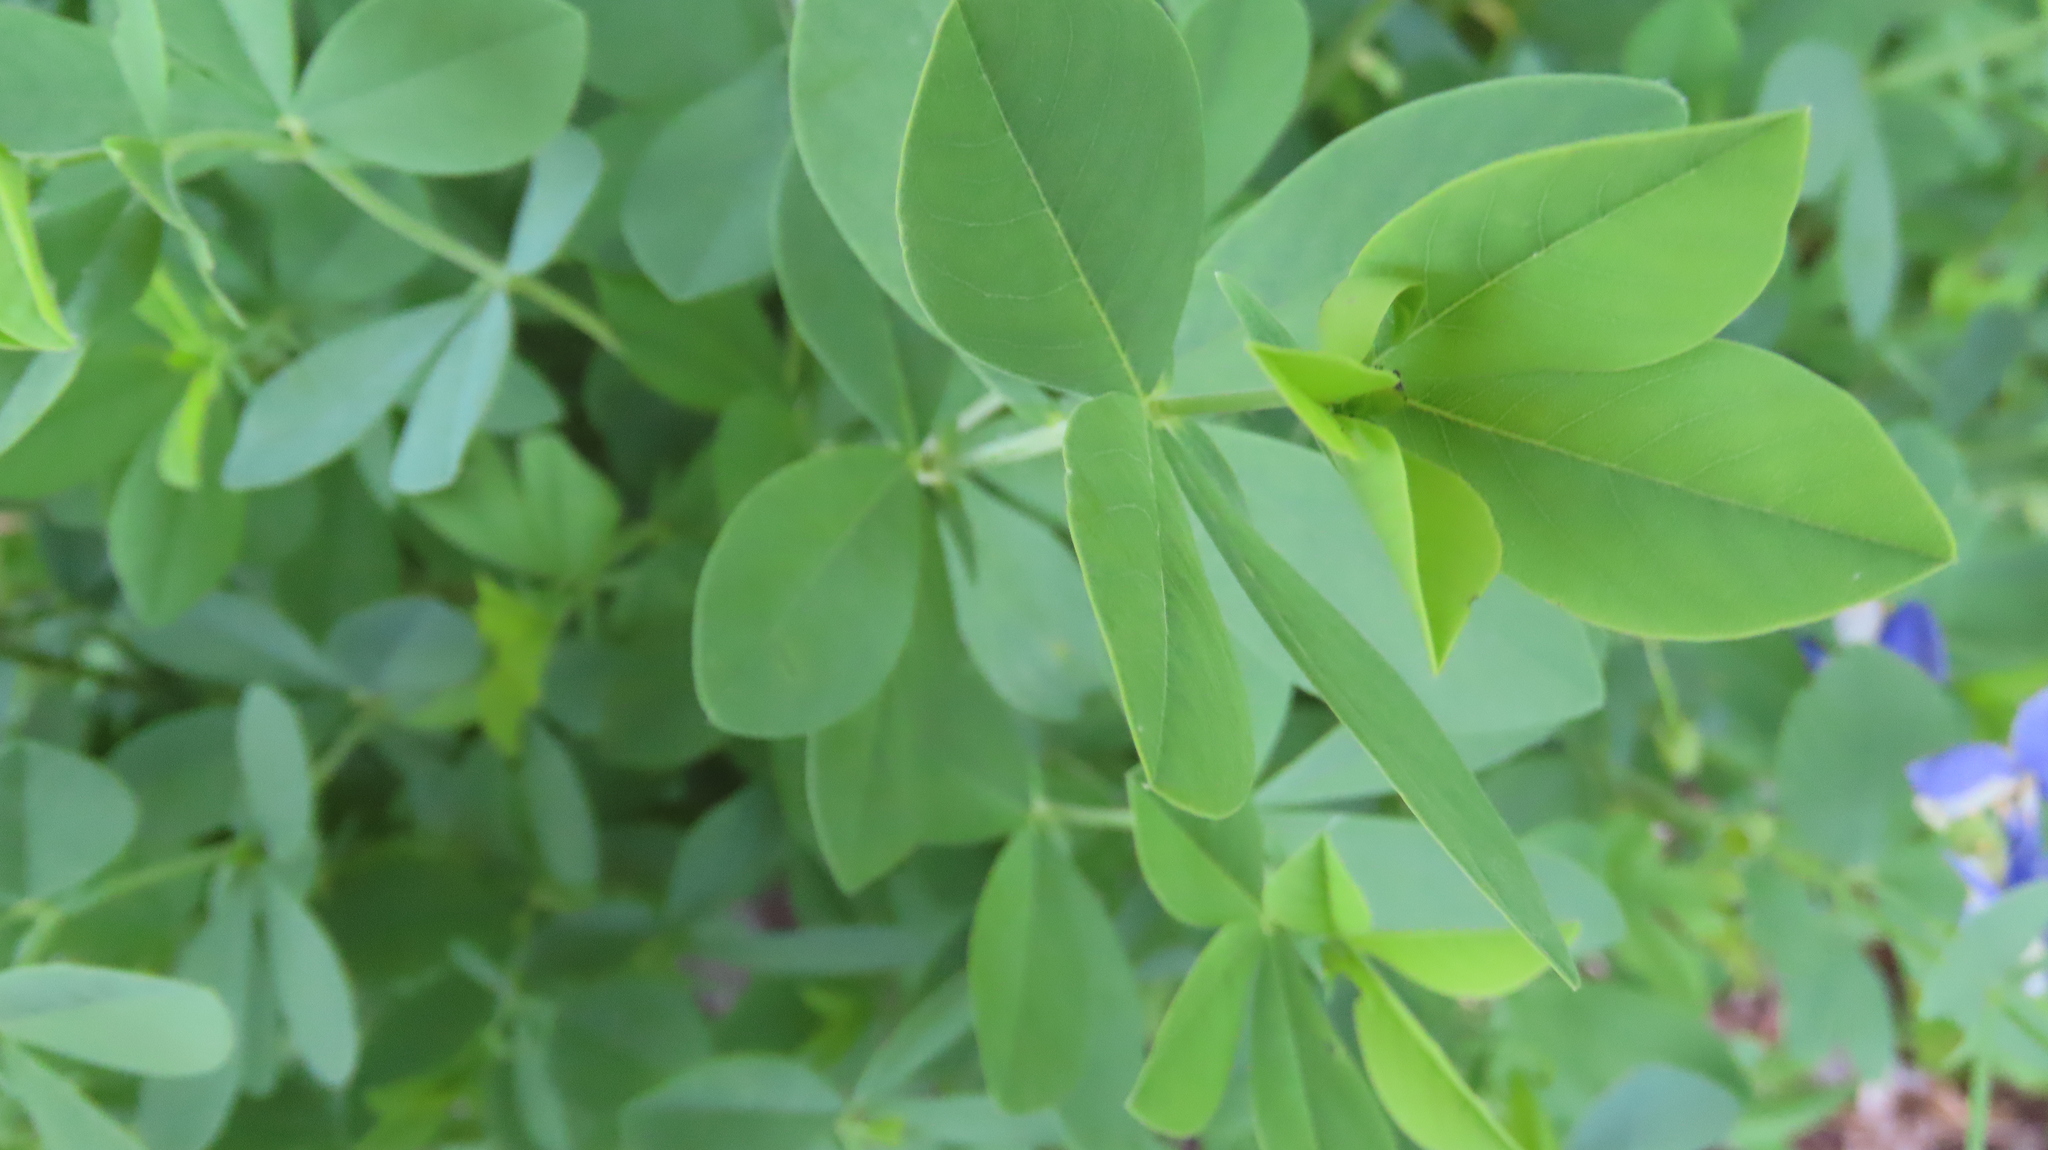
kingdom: Plantae
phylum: Tracheophyta
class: Magnoliopsida
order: Fabales
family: Fabaceae
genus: Baptisia
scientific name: Baptisia australis
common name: Blue false indigo
